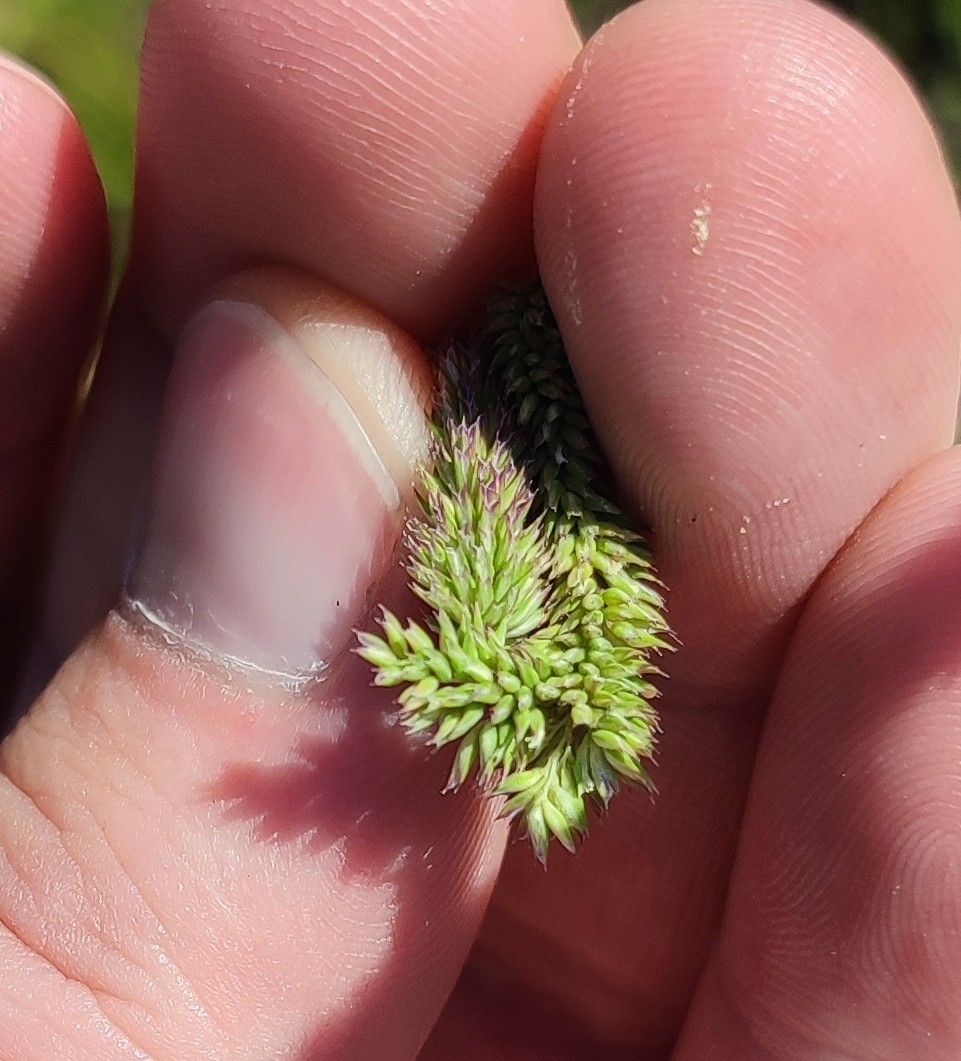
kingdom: Plantae
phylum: Tracheophyta
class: Liliopsida
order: Poales
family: Poaceae
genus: Phleum
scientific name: Phleum phleoides
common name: Purple-stem cat's-tail
